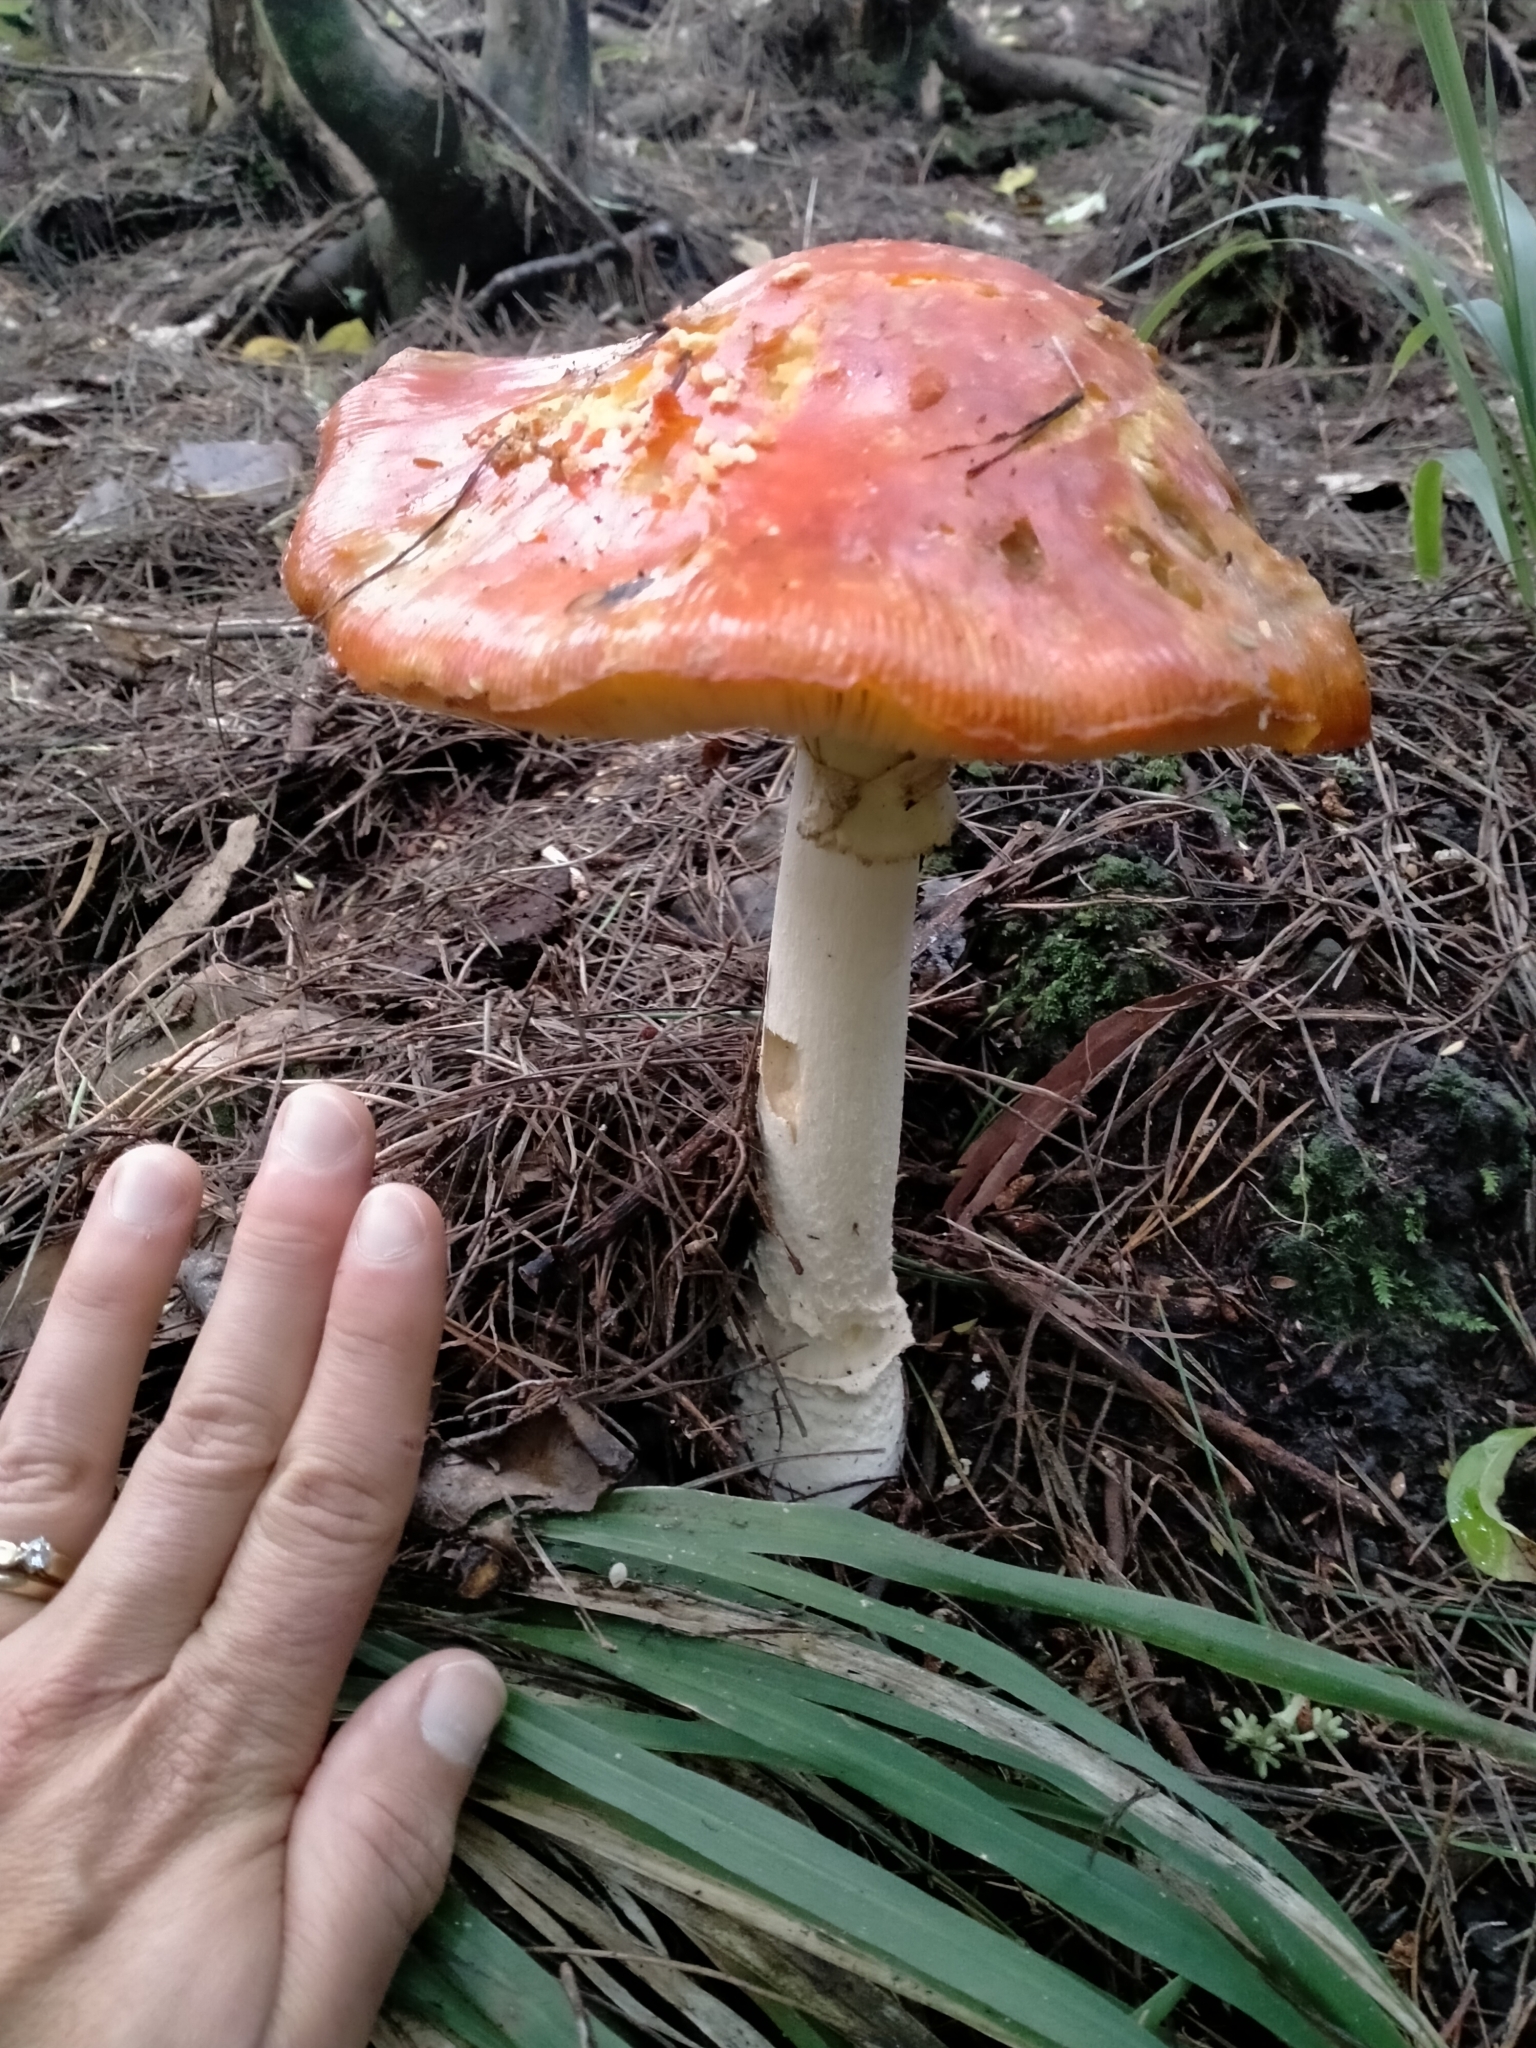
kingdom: Fungi
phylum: Basidiomycota
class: Agaricomycetes
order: Agaricales
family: Amanitaceae
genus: Amanita
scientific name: Amanita muscaria
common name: Fly agaric
